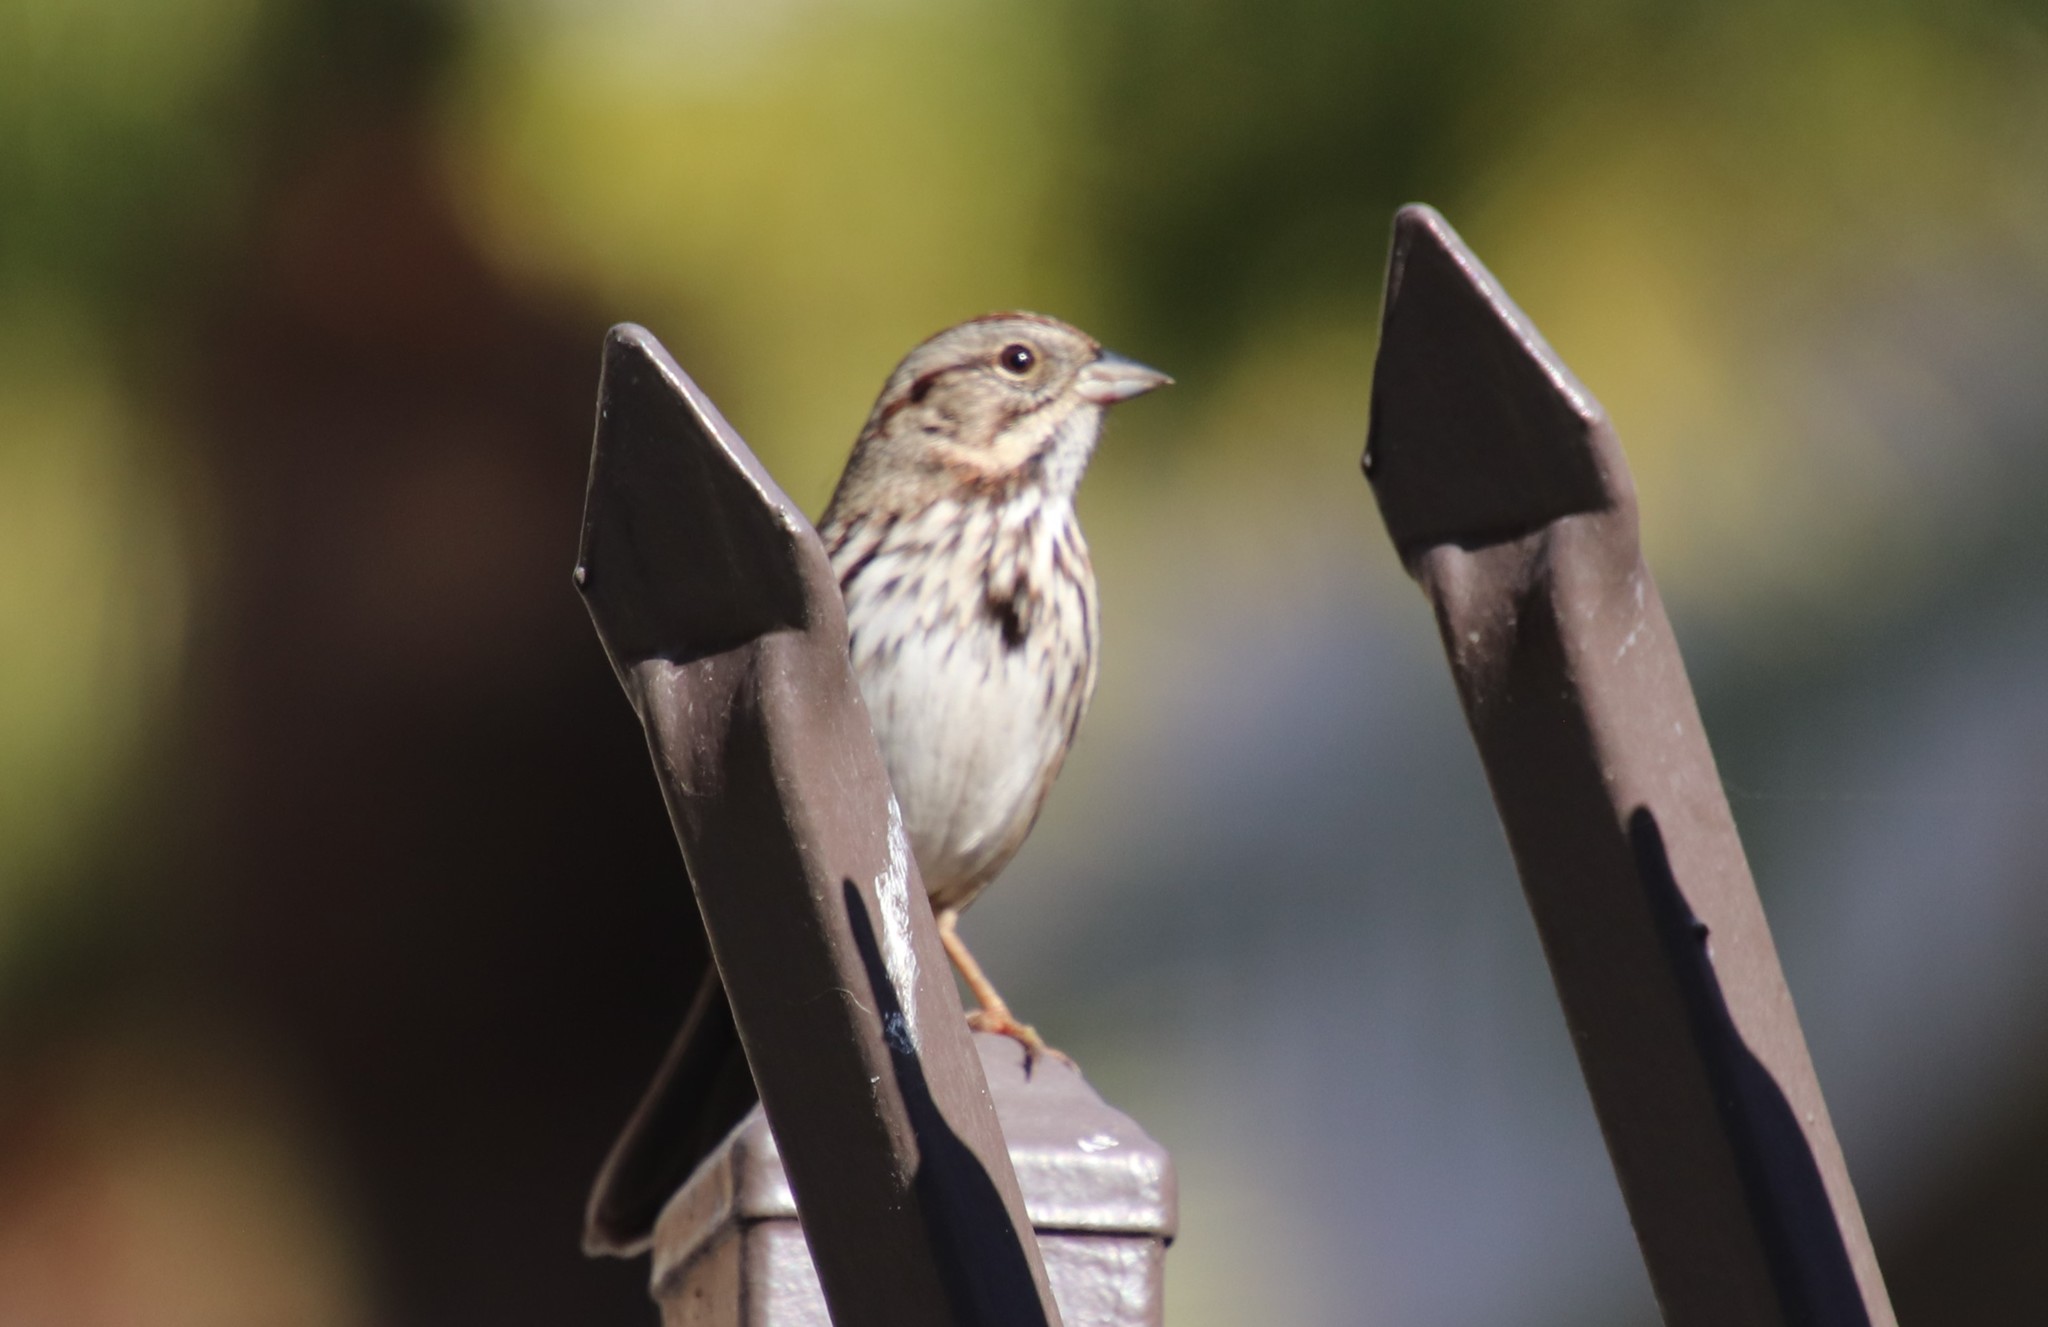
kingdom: Animalia
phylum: Chordata
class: Aves
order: Passeriformes
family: Passerellidae
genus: Melospiza
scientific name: Melospiza melodia
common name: Song sparrow
